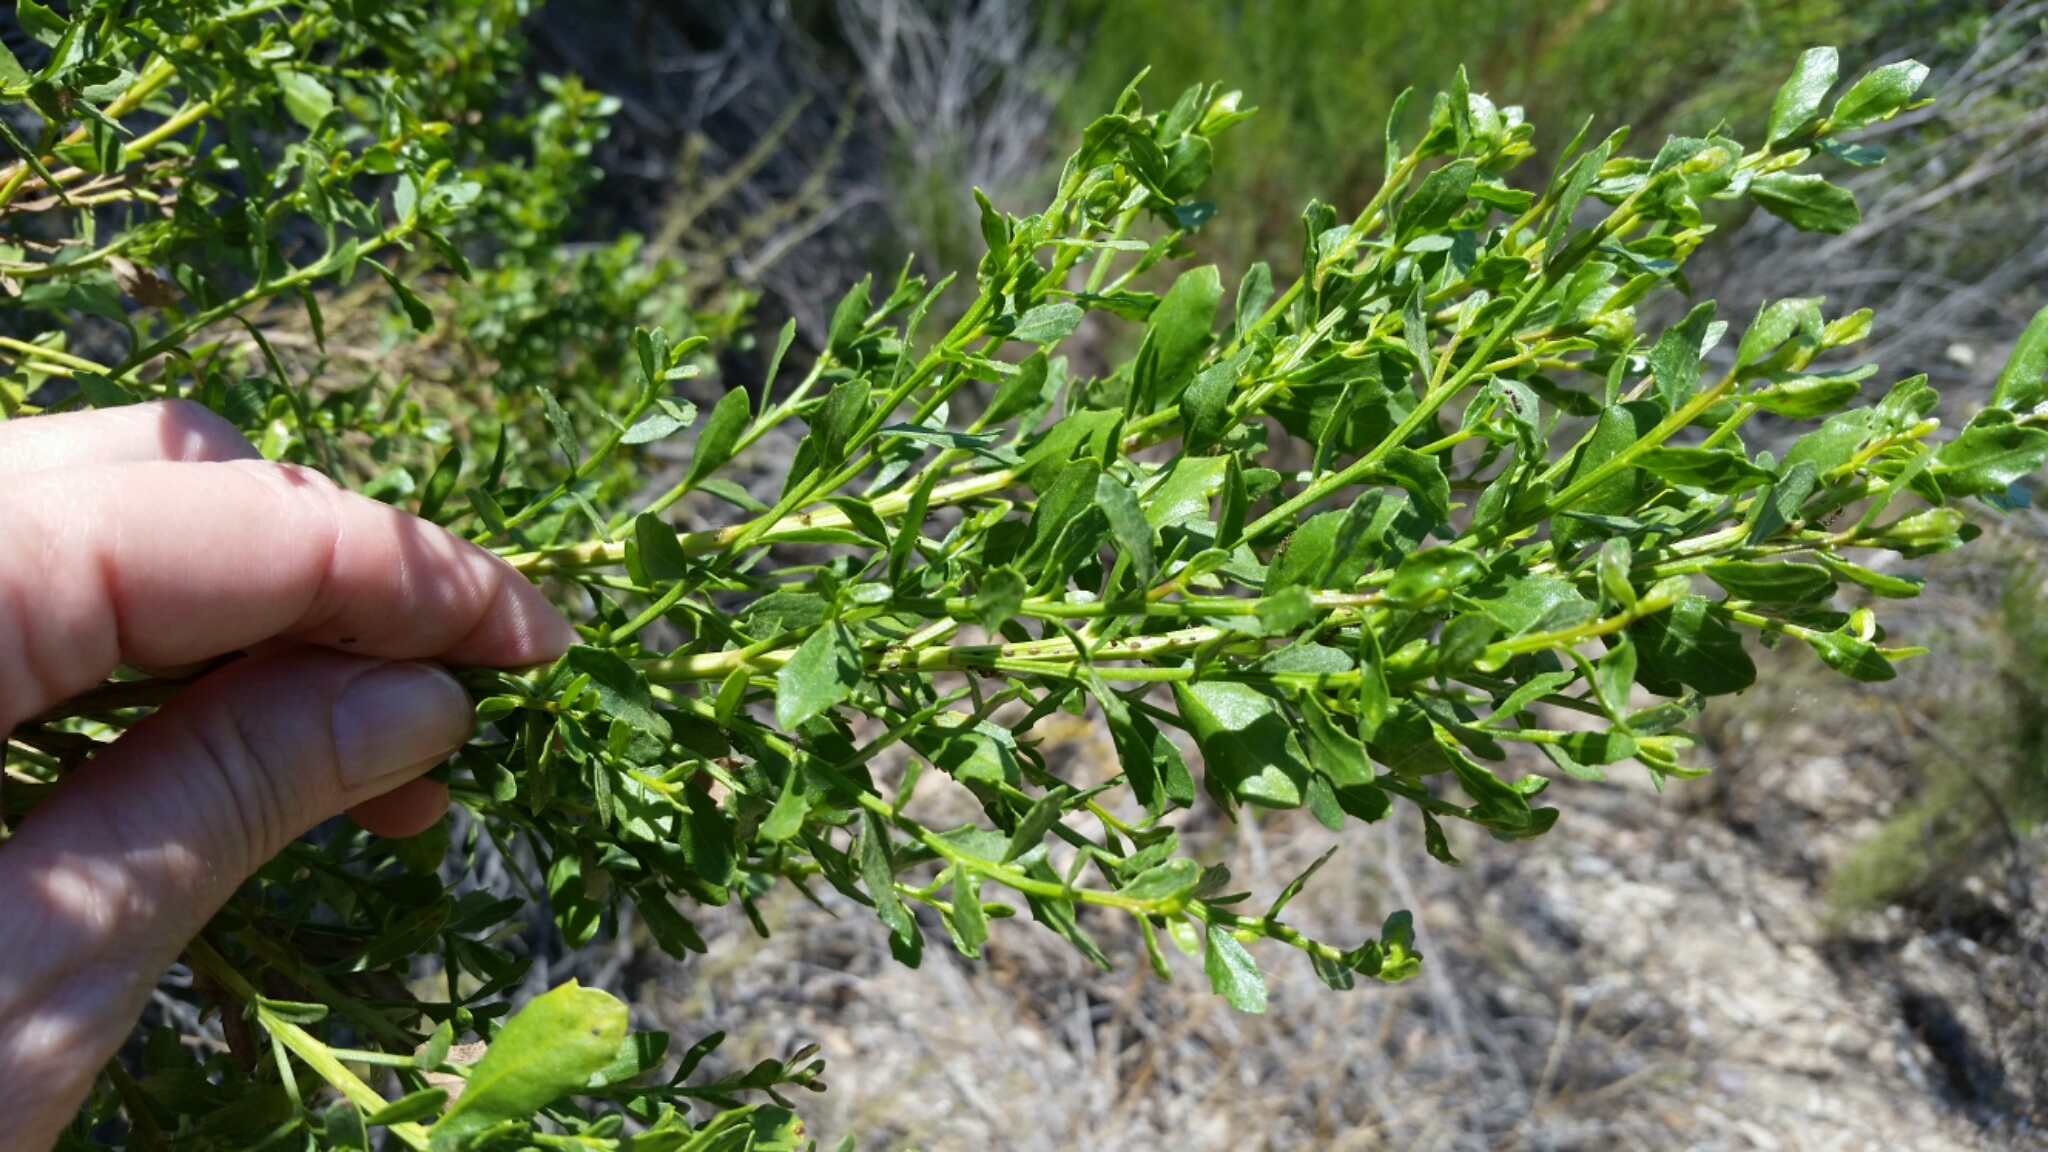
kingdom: Plantae
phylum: Tracheophyta
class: Magnoliopsida
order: Asterales
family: Asteraceae
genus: Baccharis
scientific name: Baccharis pilularis
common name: Coyotebrush
